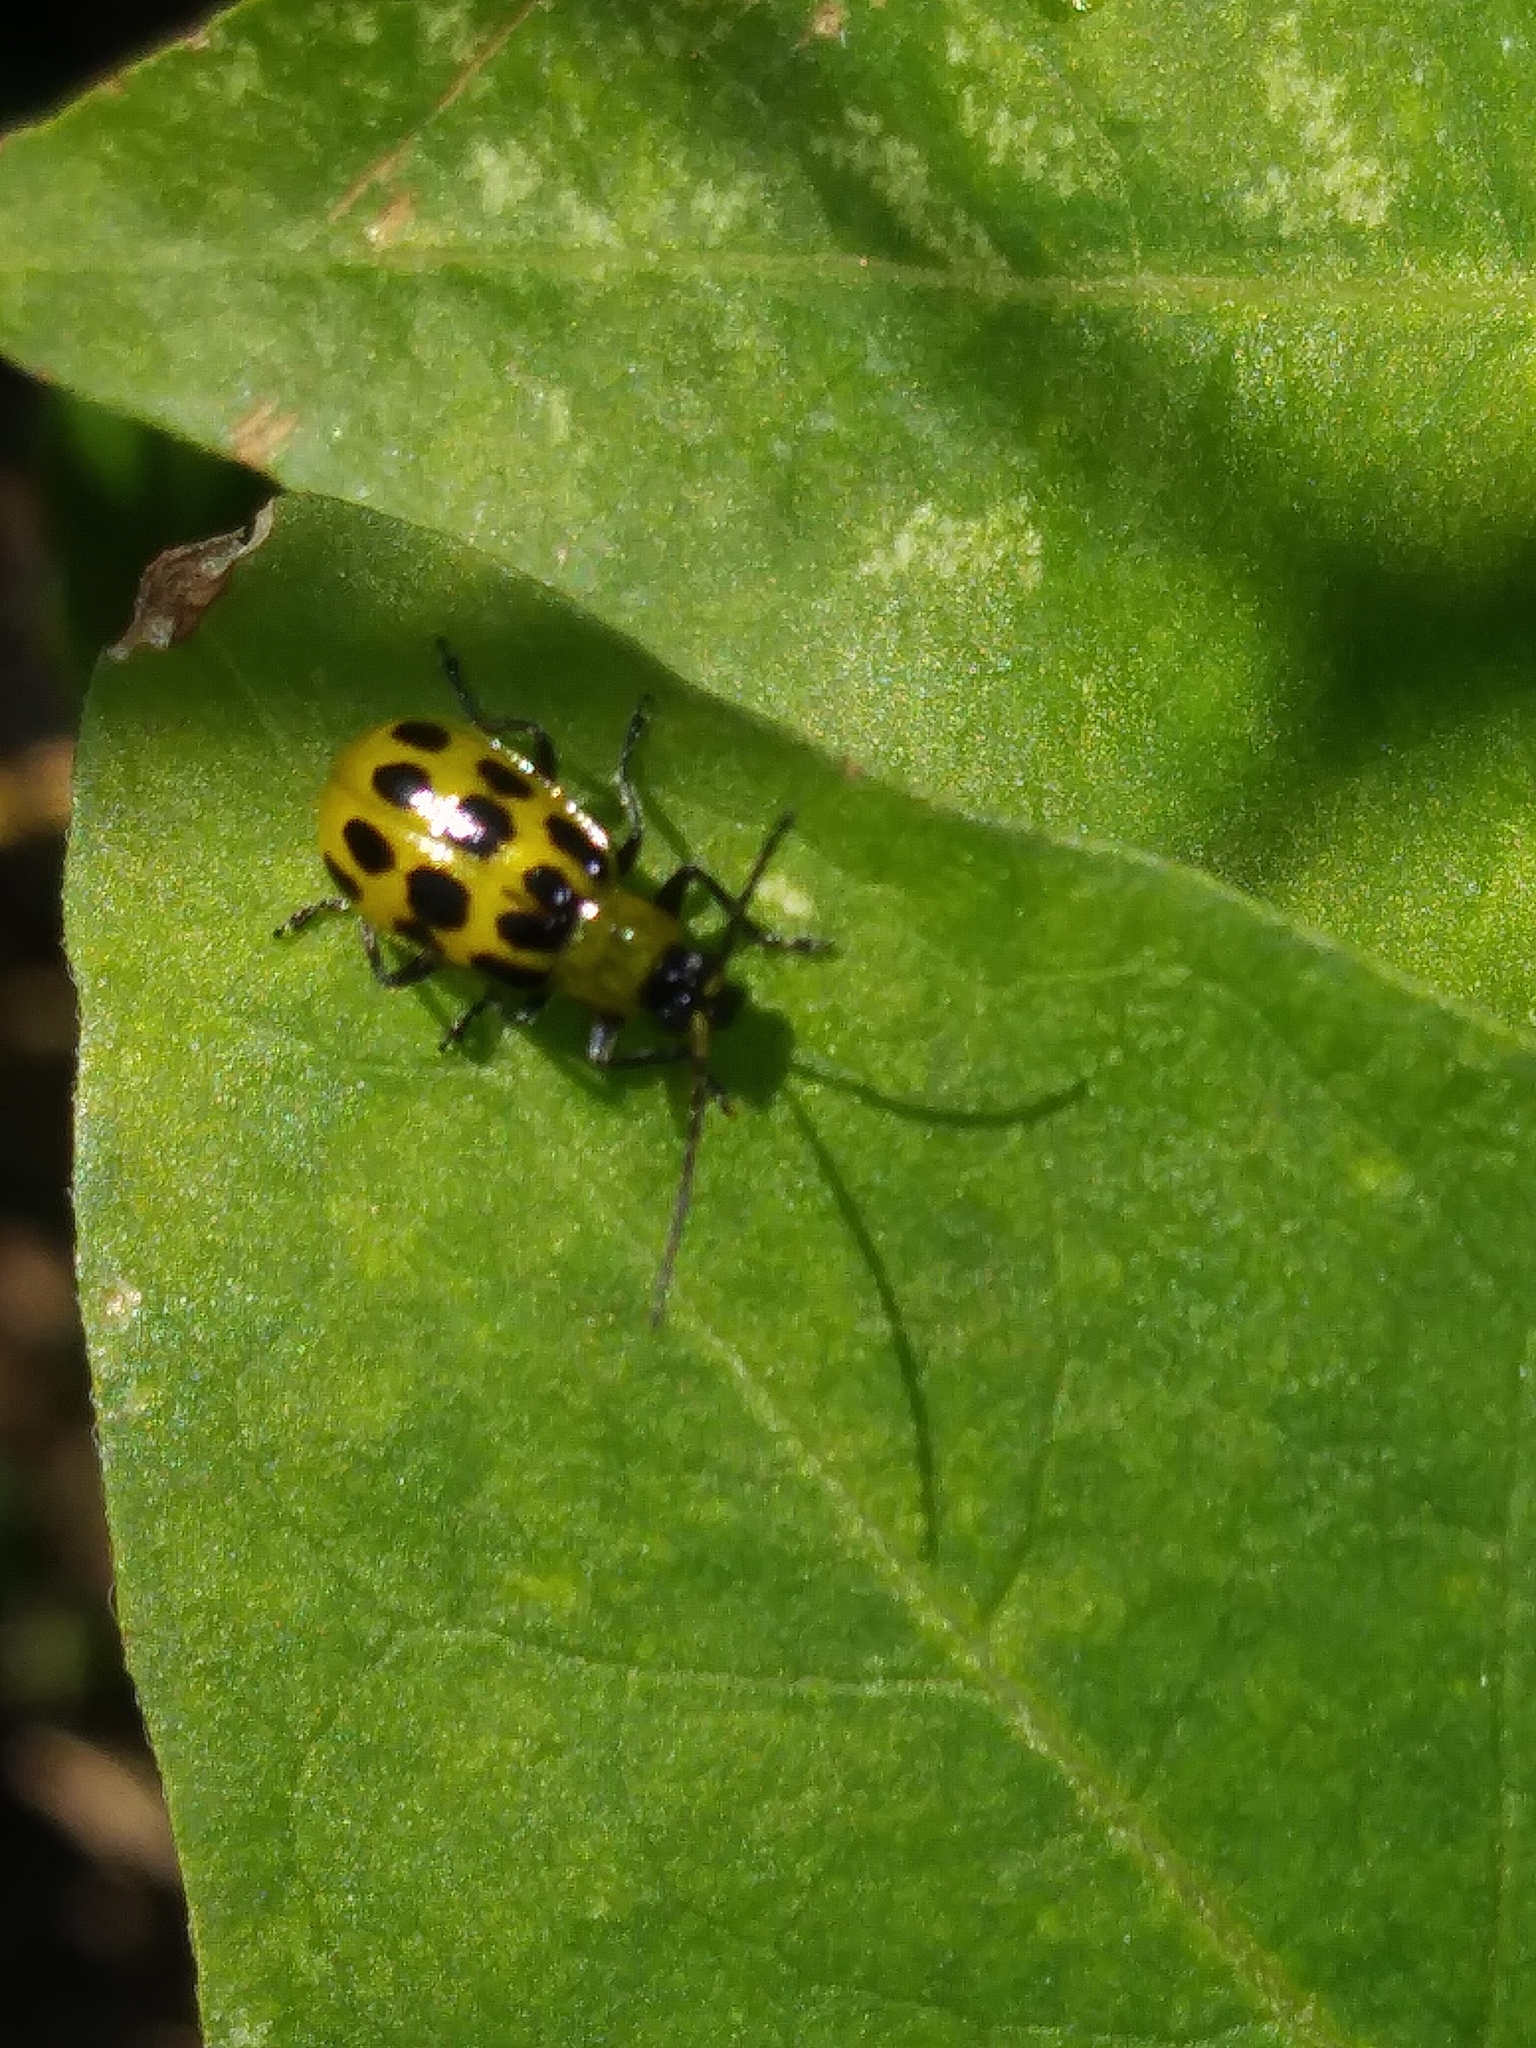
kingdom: Animalia
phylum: Arthropoda
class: Insecta
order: Coleoptera
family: Chrysomelidae
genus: Diabrotica
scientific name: Diabrotica undecimpunctata
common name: Spotted cucumber beetle
